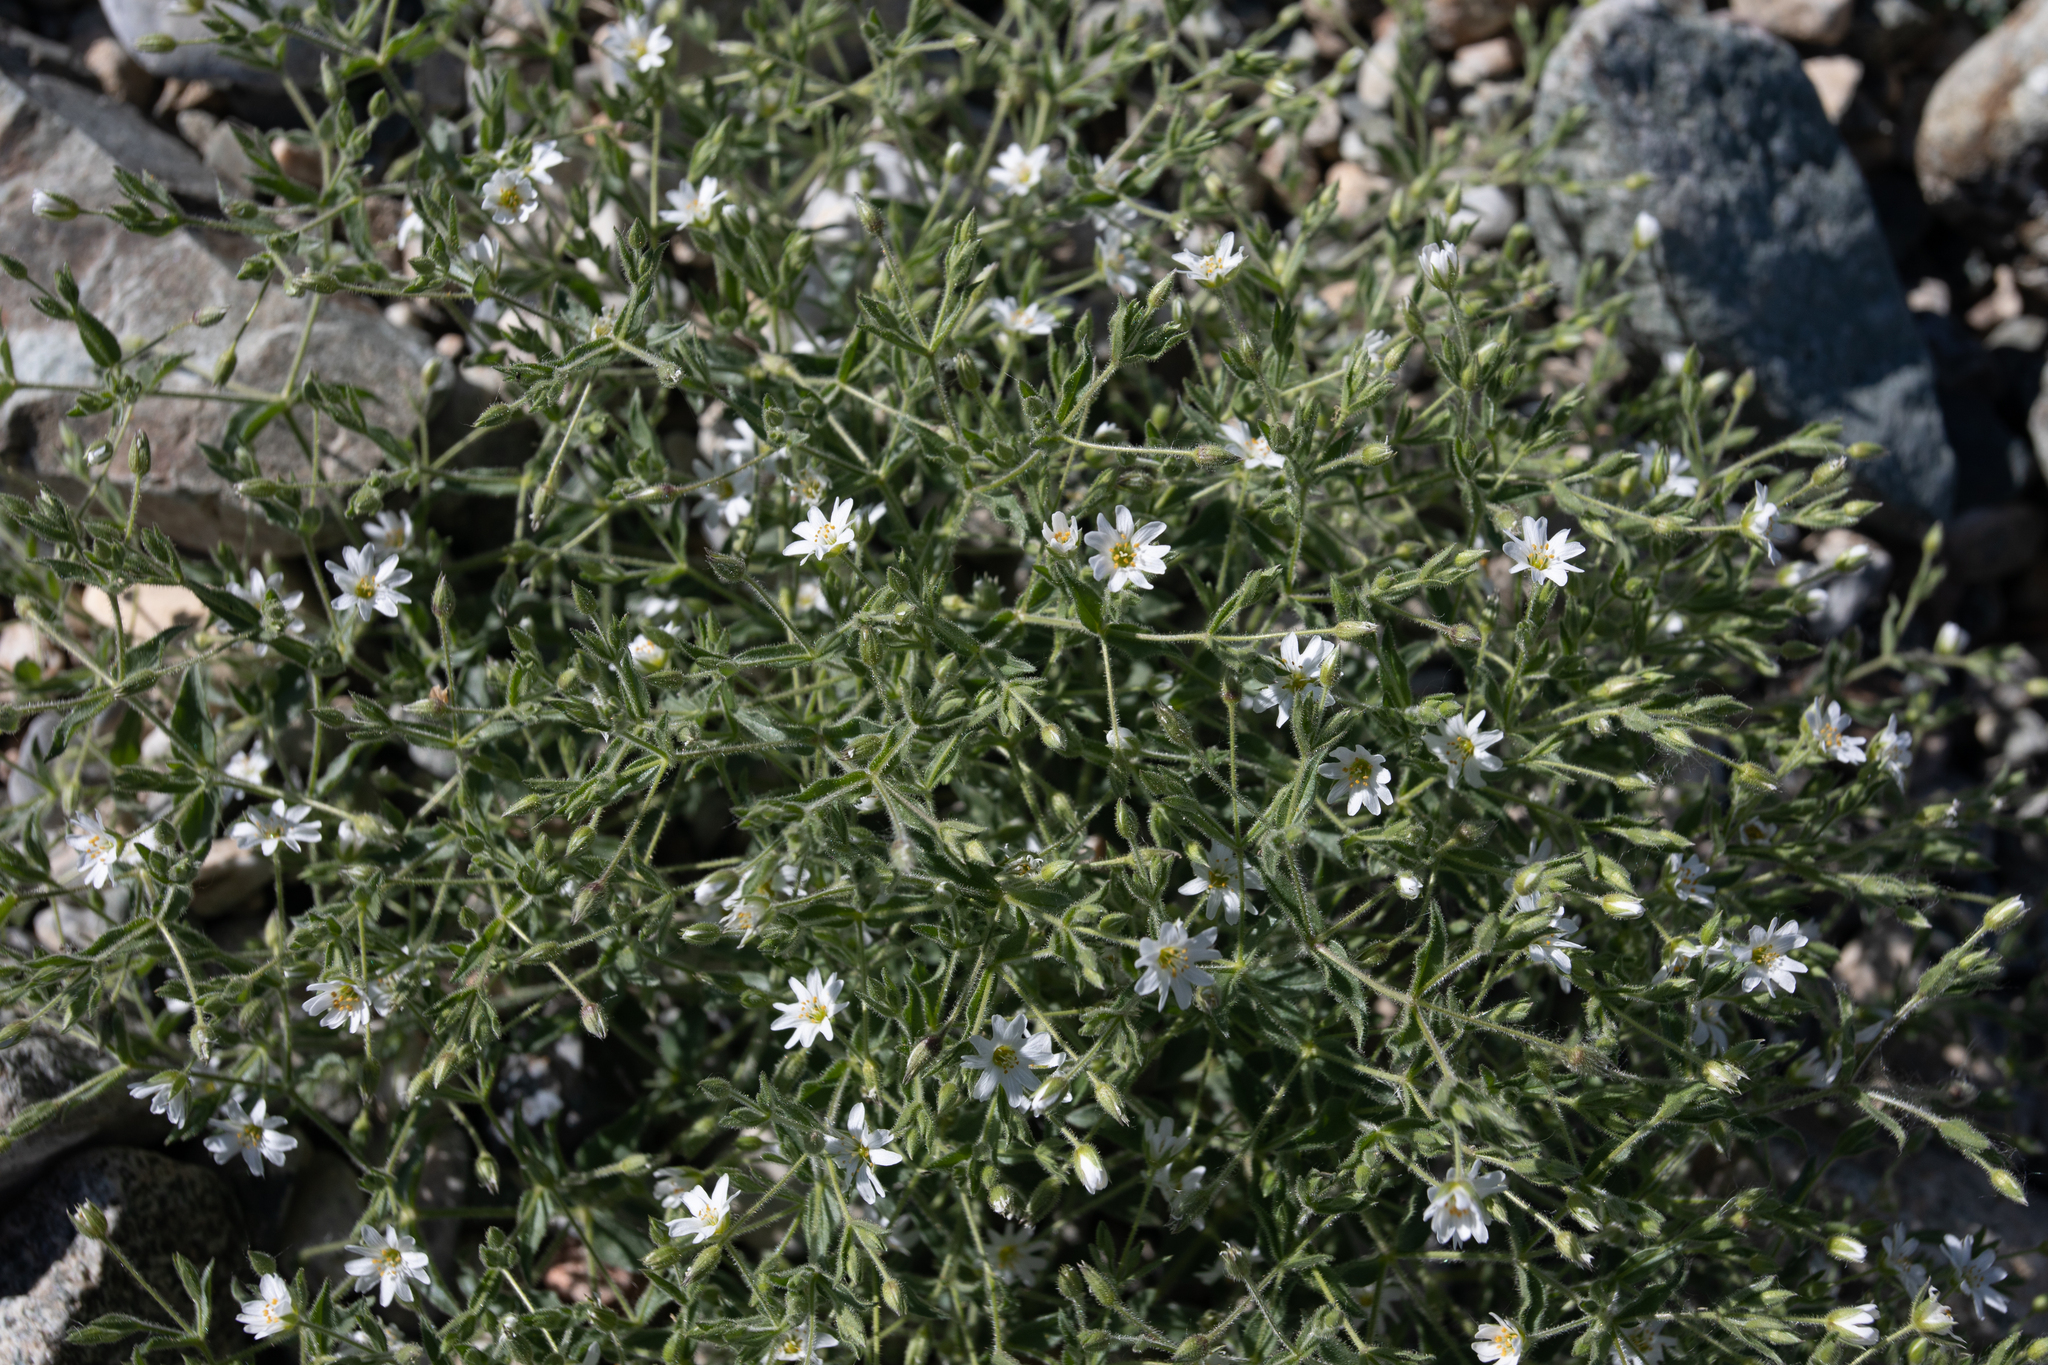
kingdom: Plantae
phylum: Tracheophyta
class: Magnoliopsida
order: Caryophyllales
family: Caryophyllaceae
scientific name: Caryophyllaceae
